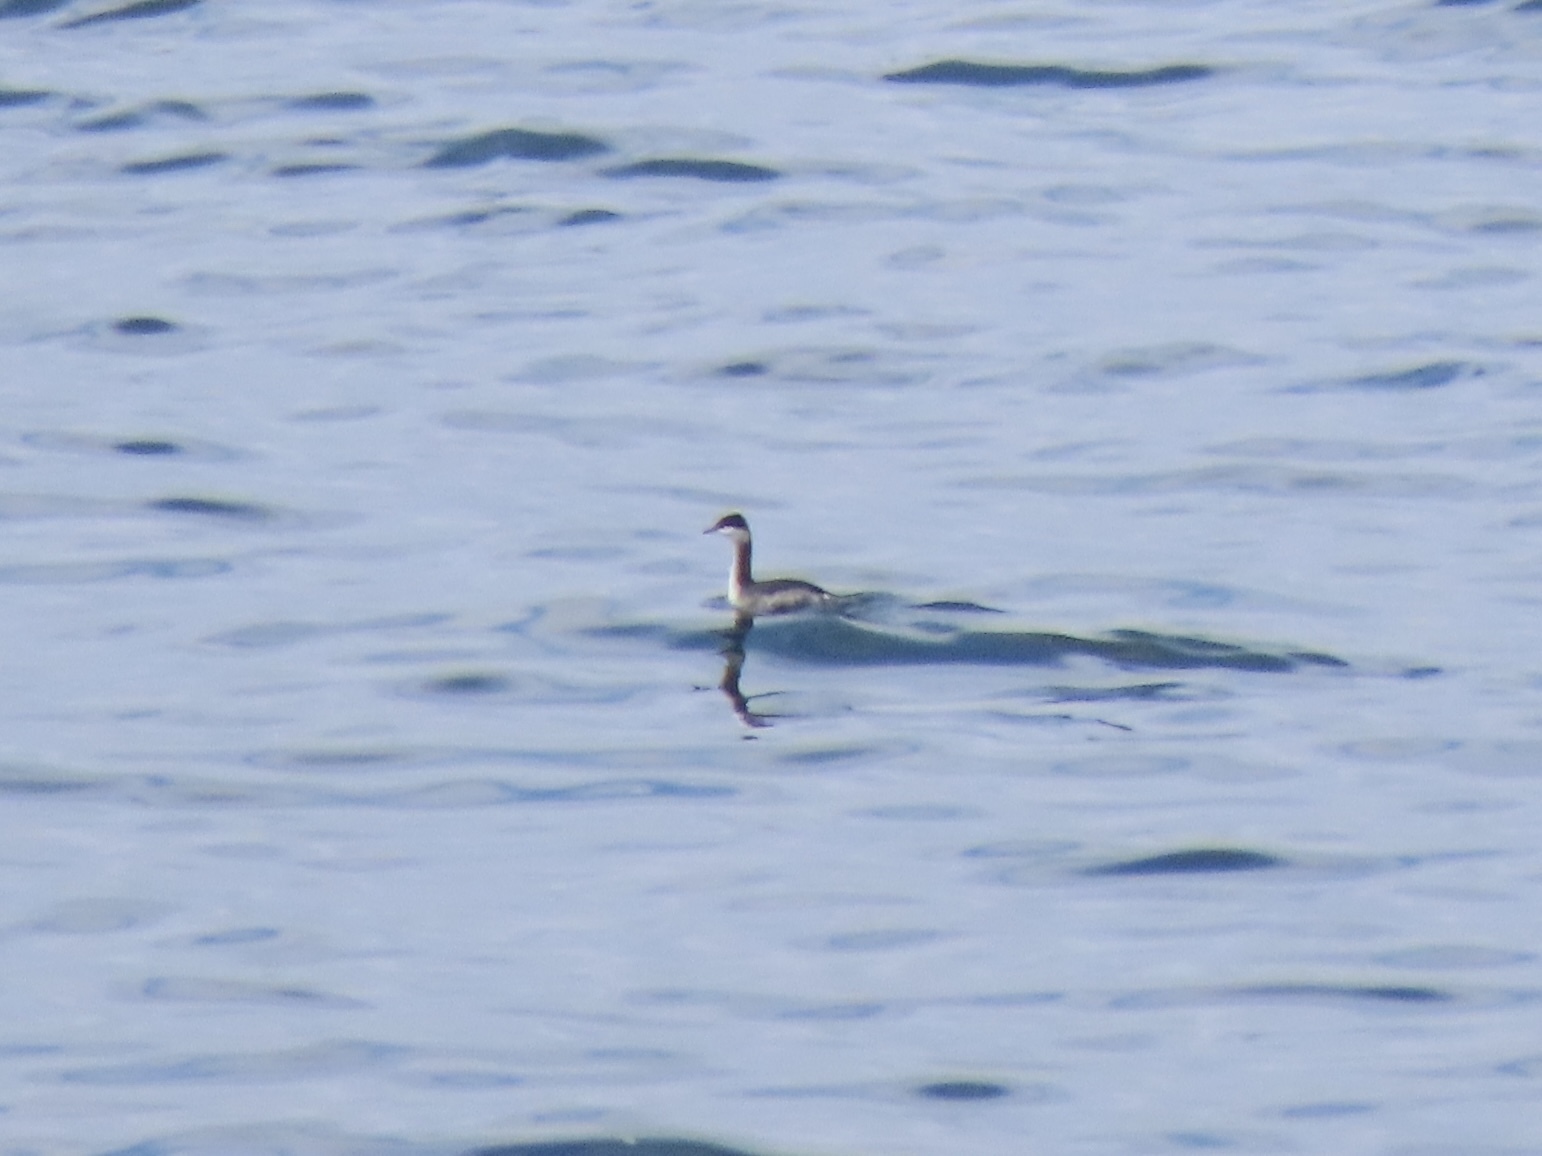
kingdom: Animalia
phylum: Chordata
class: Aves
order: Podicipediformes
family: Podicipedidae
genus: Podiceps
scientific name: Podiceps auritus
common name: Horned grebe
